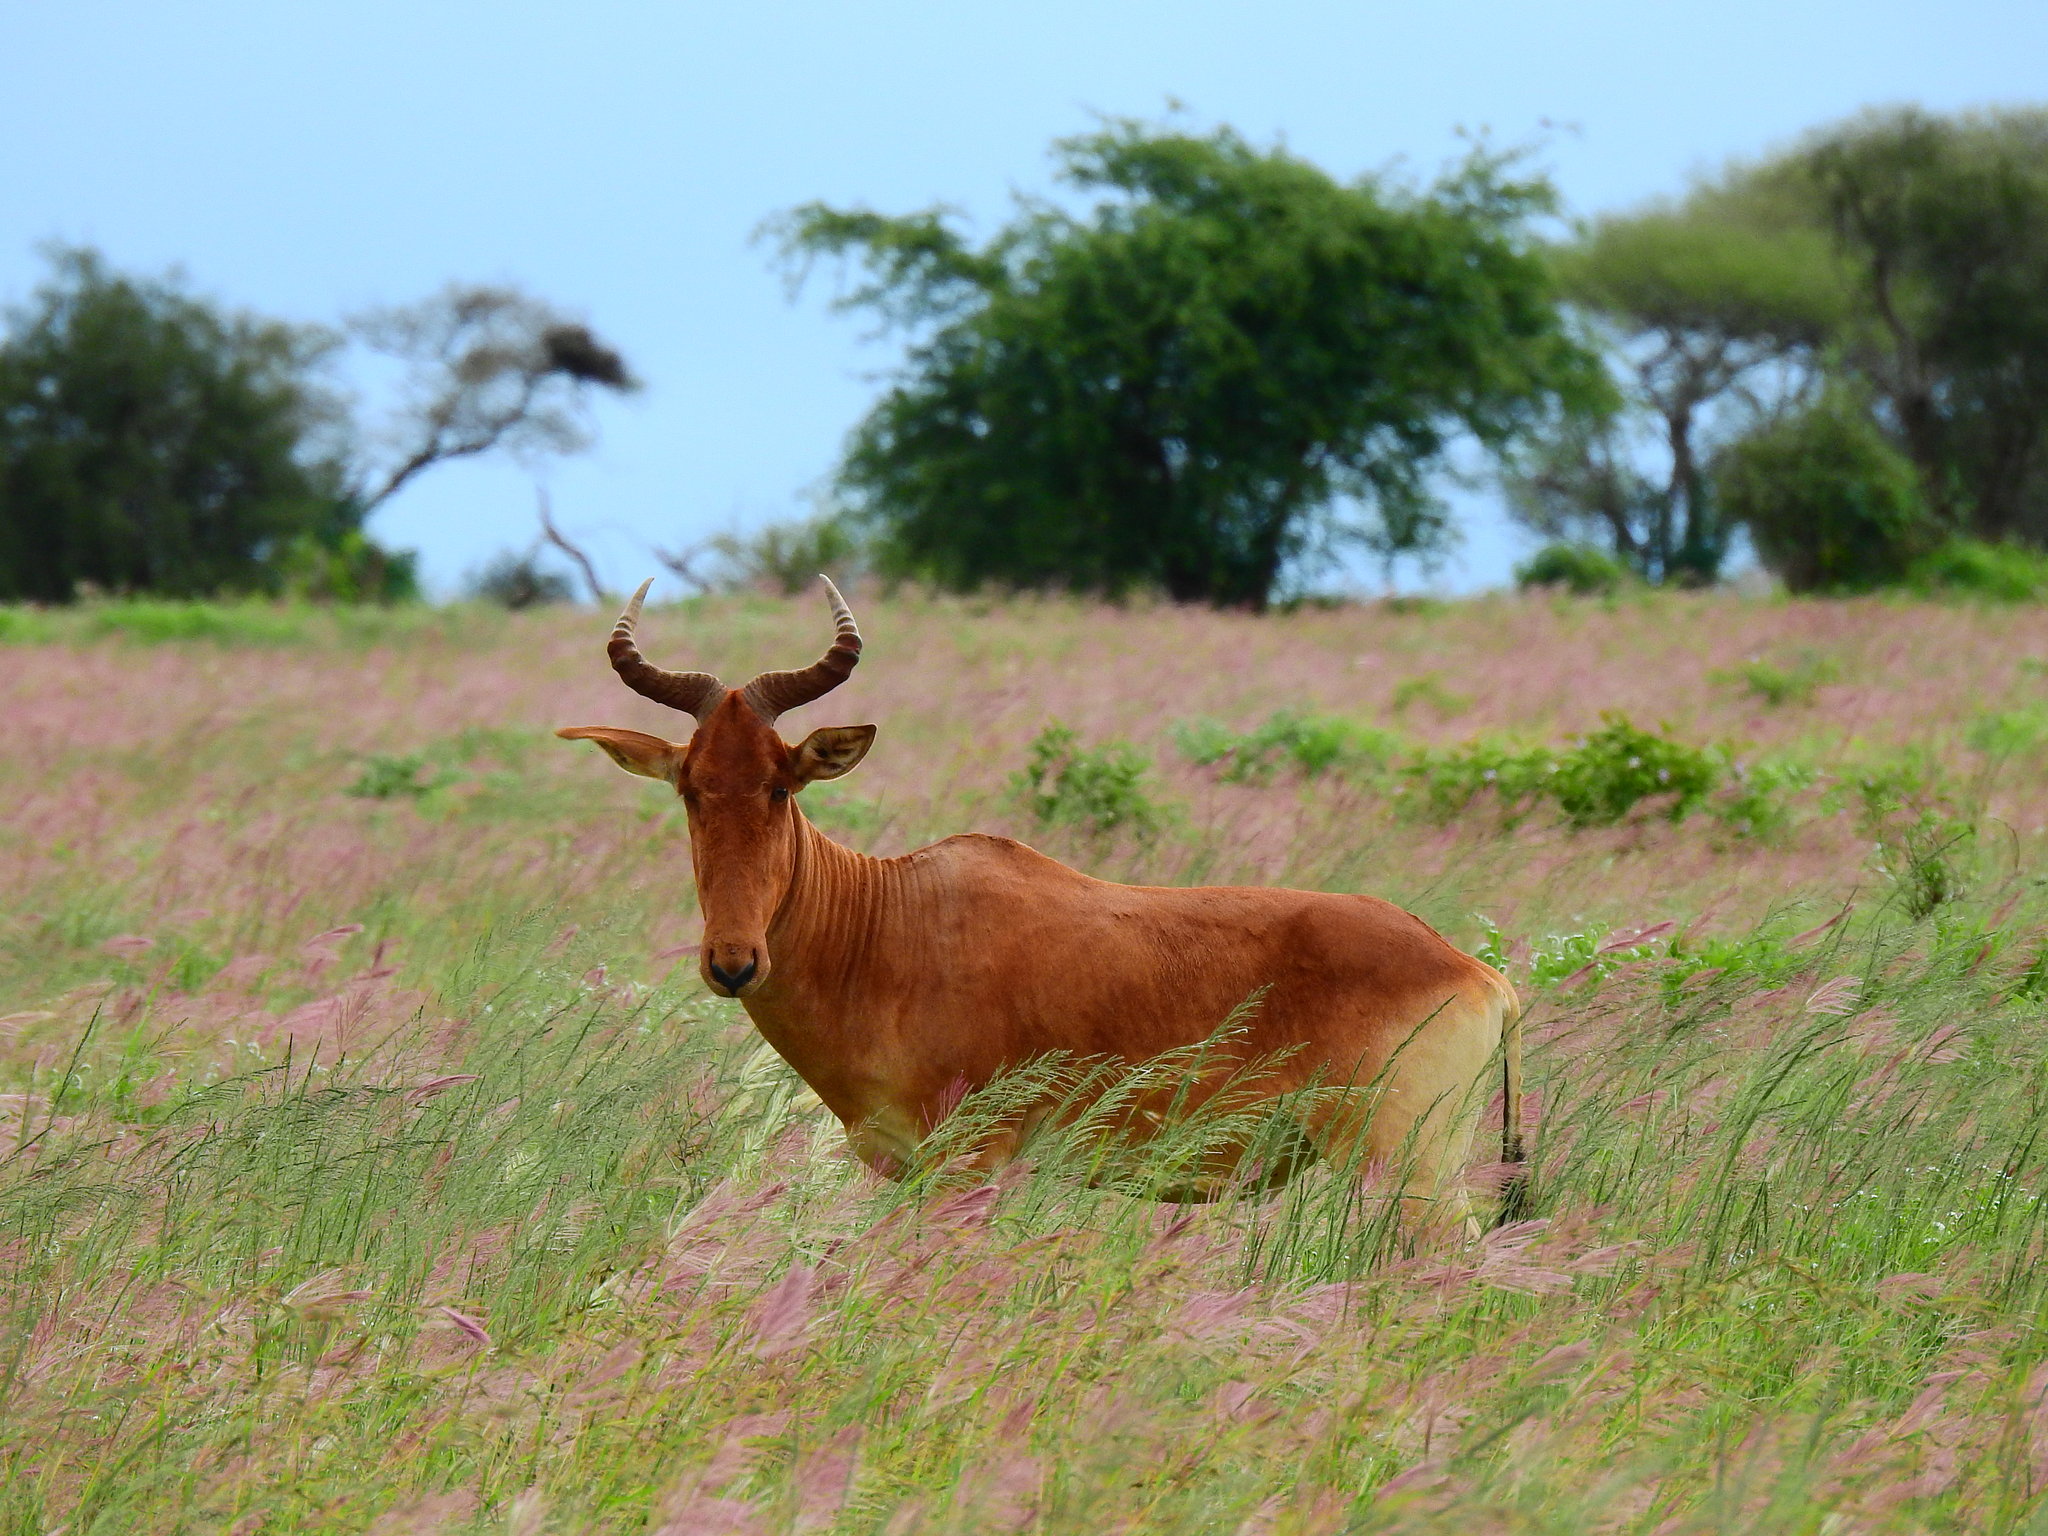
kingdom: Animalia
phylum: Chordata
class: Mammalia
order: Artiodactyla
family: Bovidae
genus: Alcelaphus
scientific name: Alcelaphus buselaphus
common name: Hartebeest
